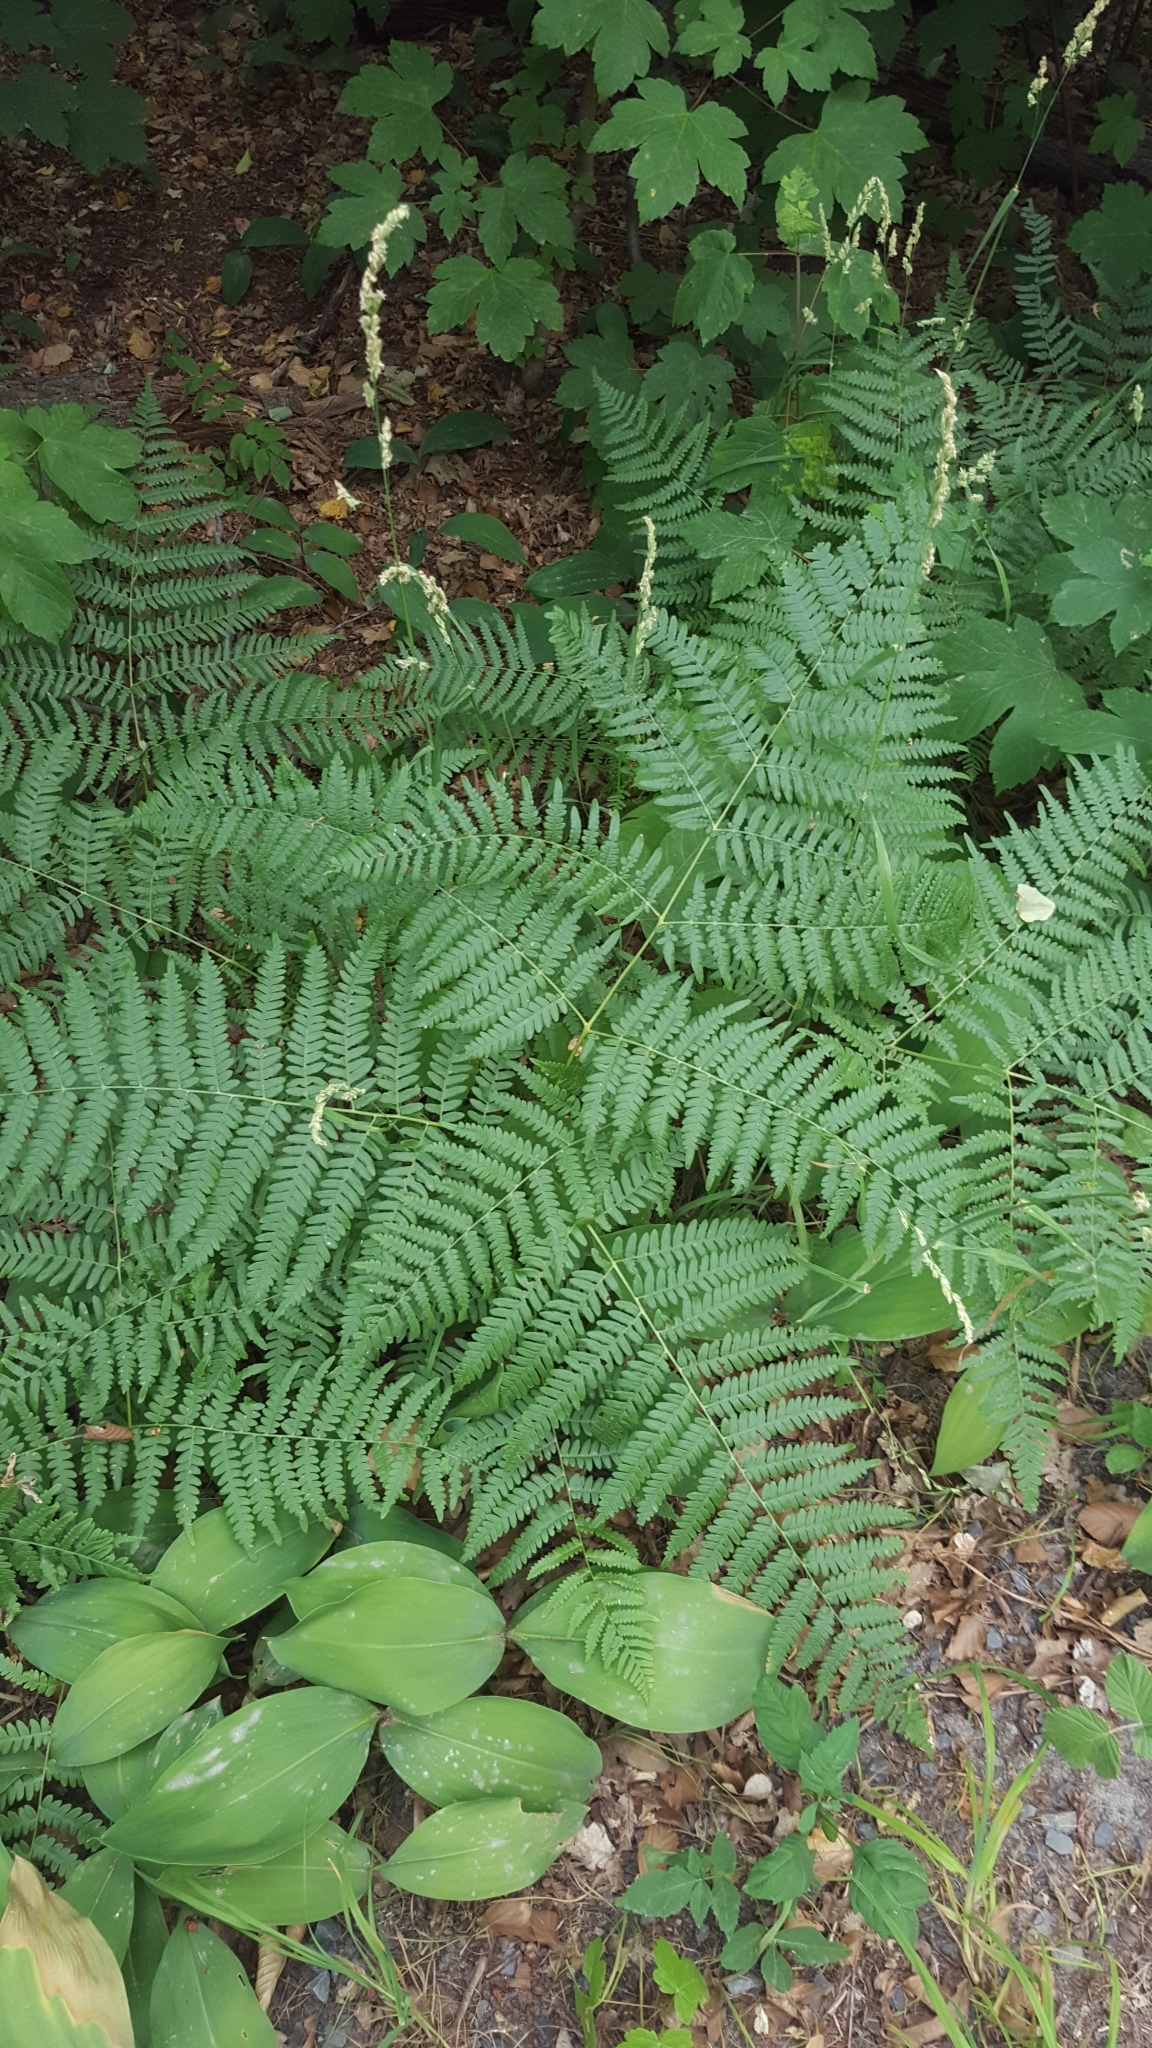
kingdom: Plantae
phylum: Tracheophyta
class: Polypodiopsida
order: Polypodiales
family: Dennstaedtiaceae
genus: Pteridium
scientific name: Pteridium aquilinum
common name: Bracken
